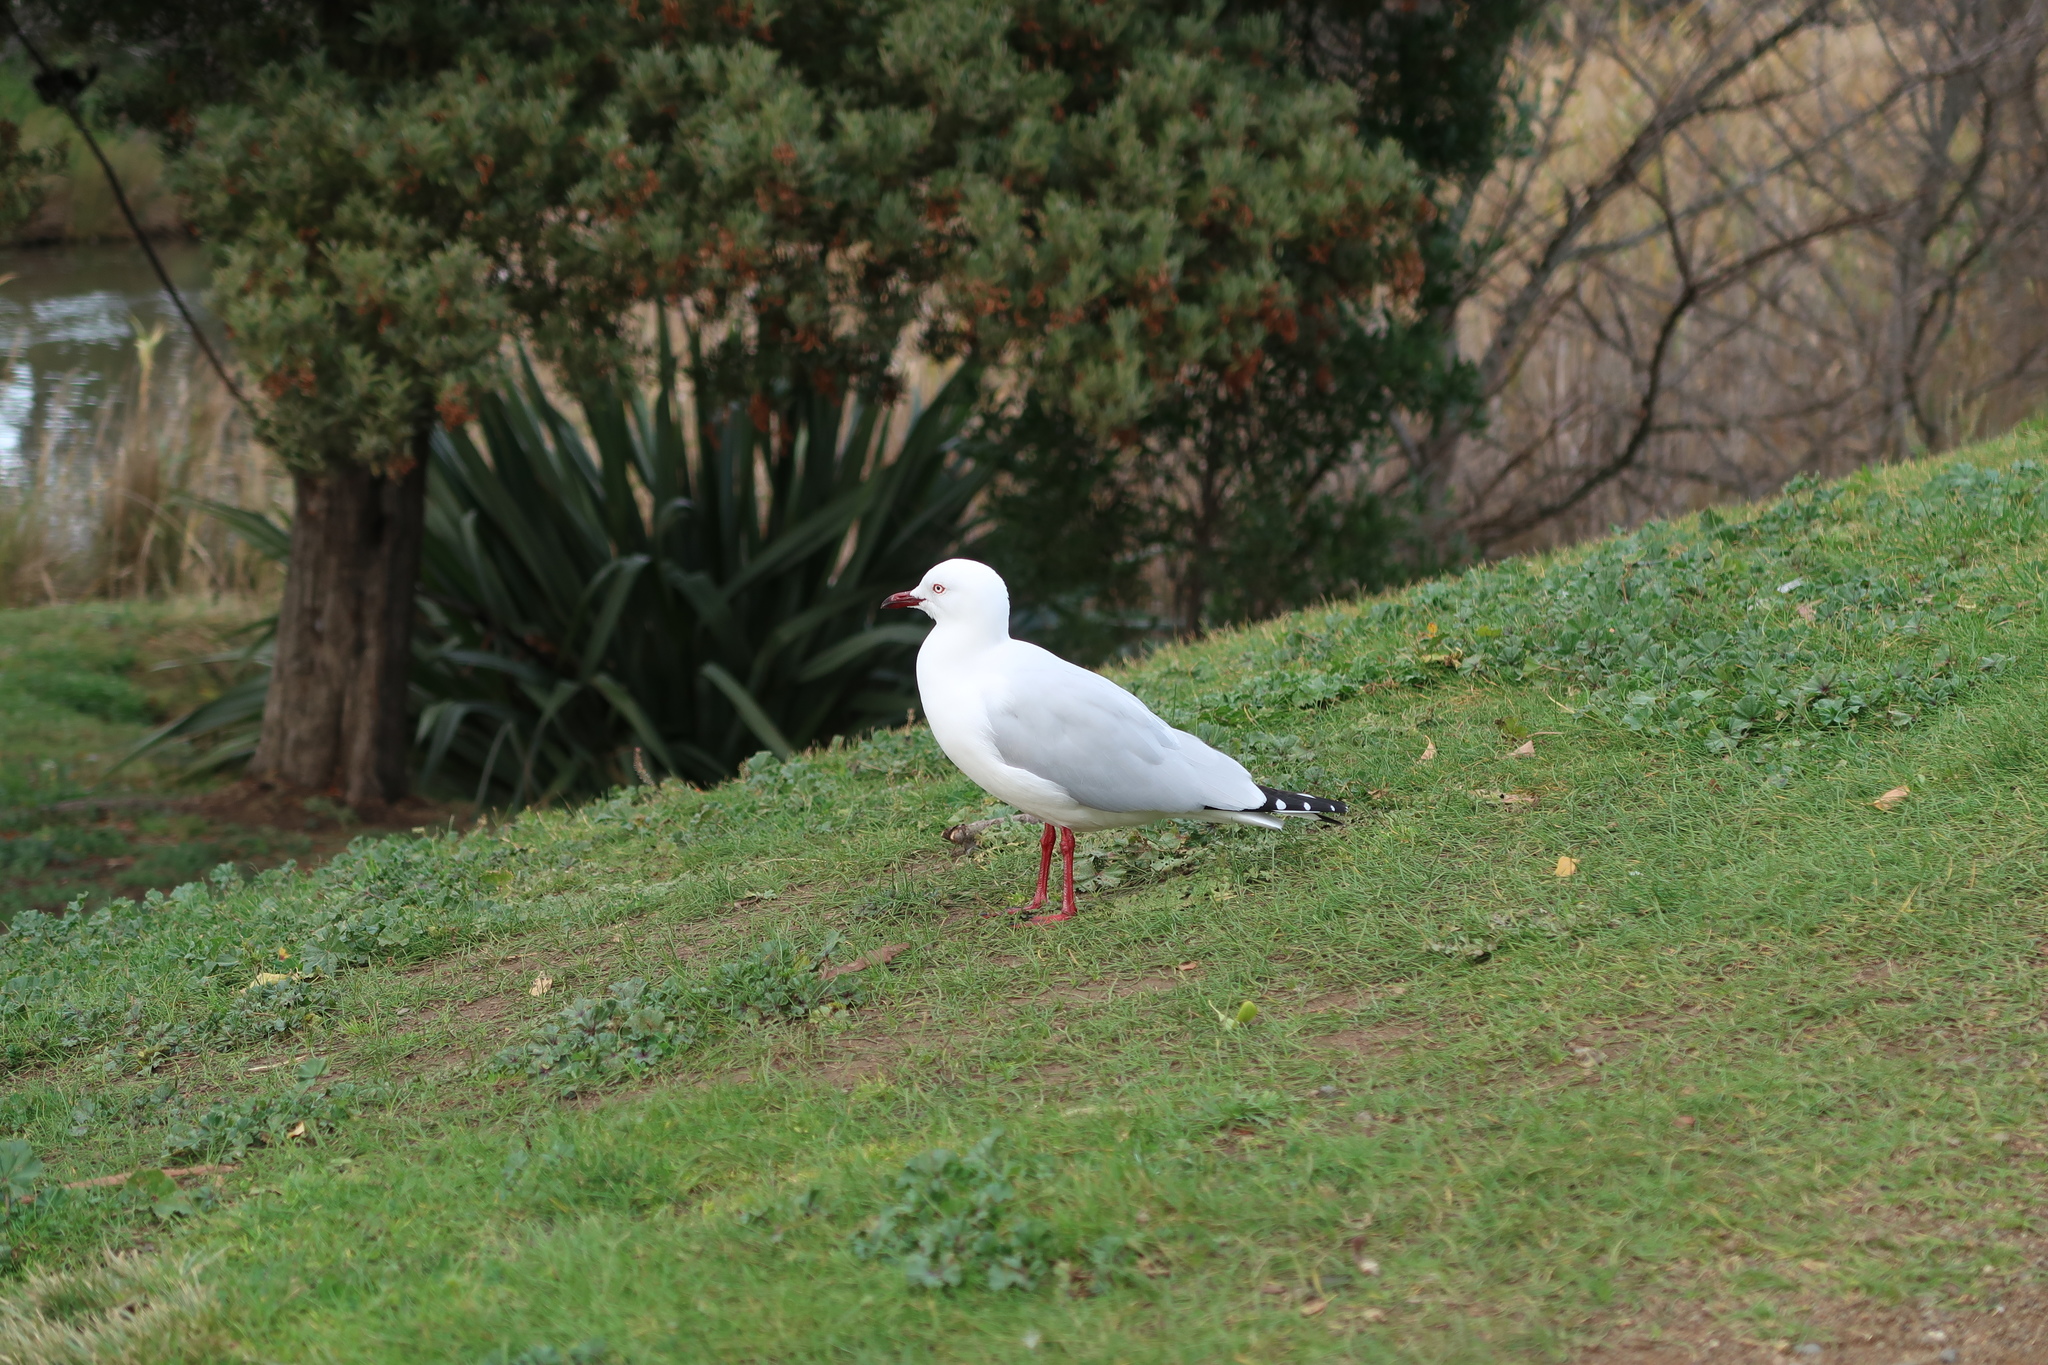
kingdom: Animalia
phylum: Chordata
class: Aves
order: Charadriiformes
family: Laridae
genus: Chroicocephalus
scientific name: Chroicocephalus novaehollandiae
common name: Silver gull
